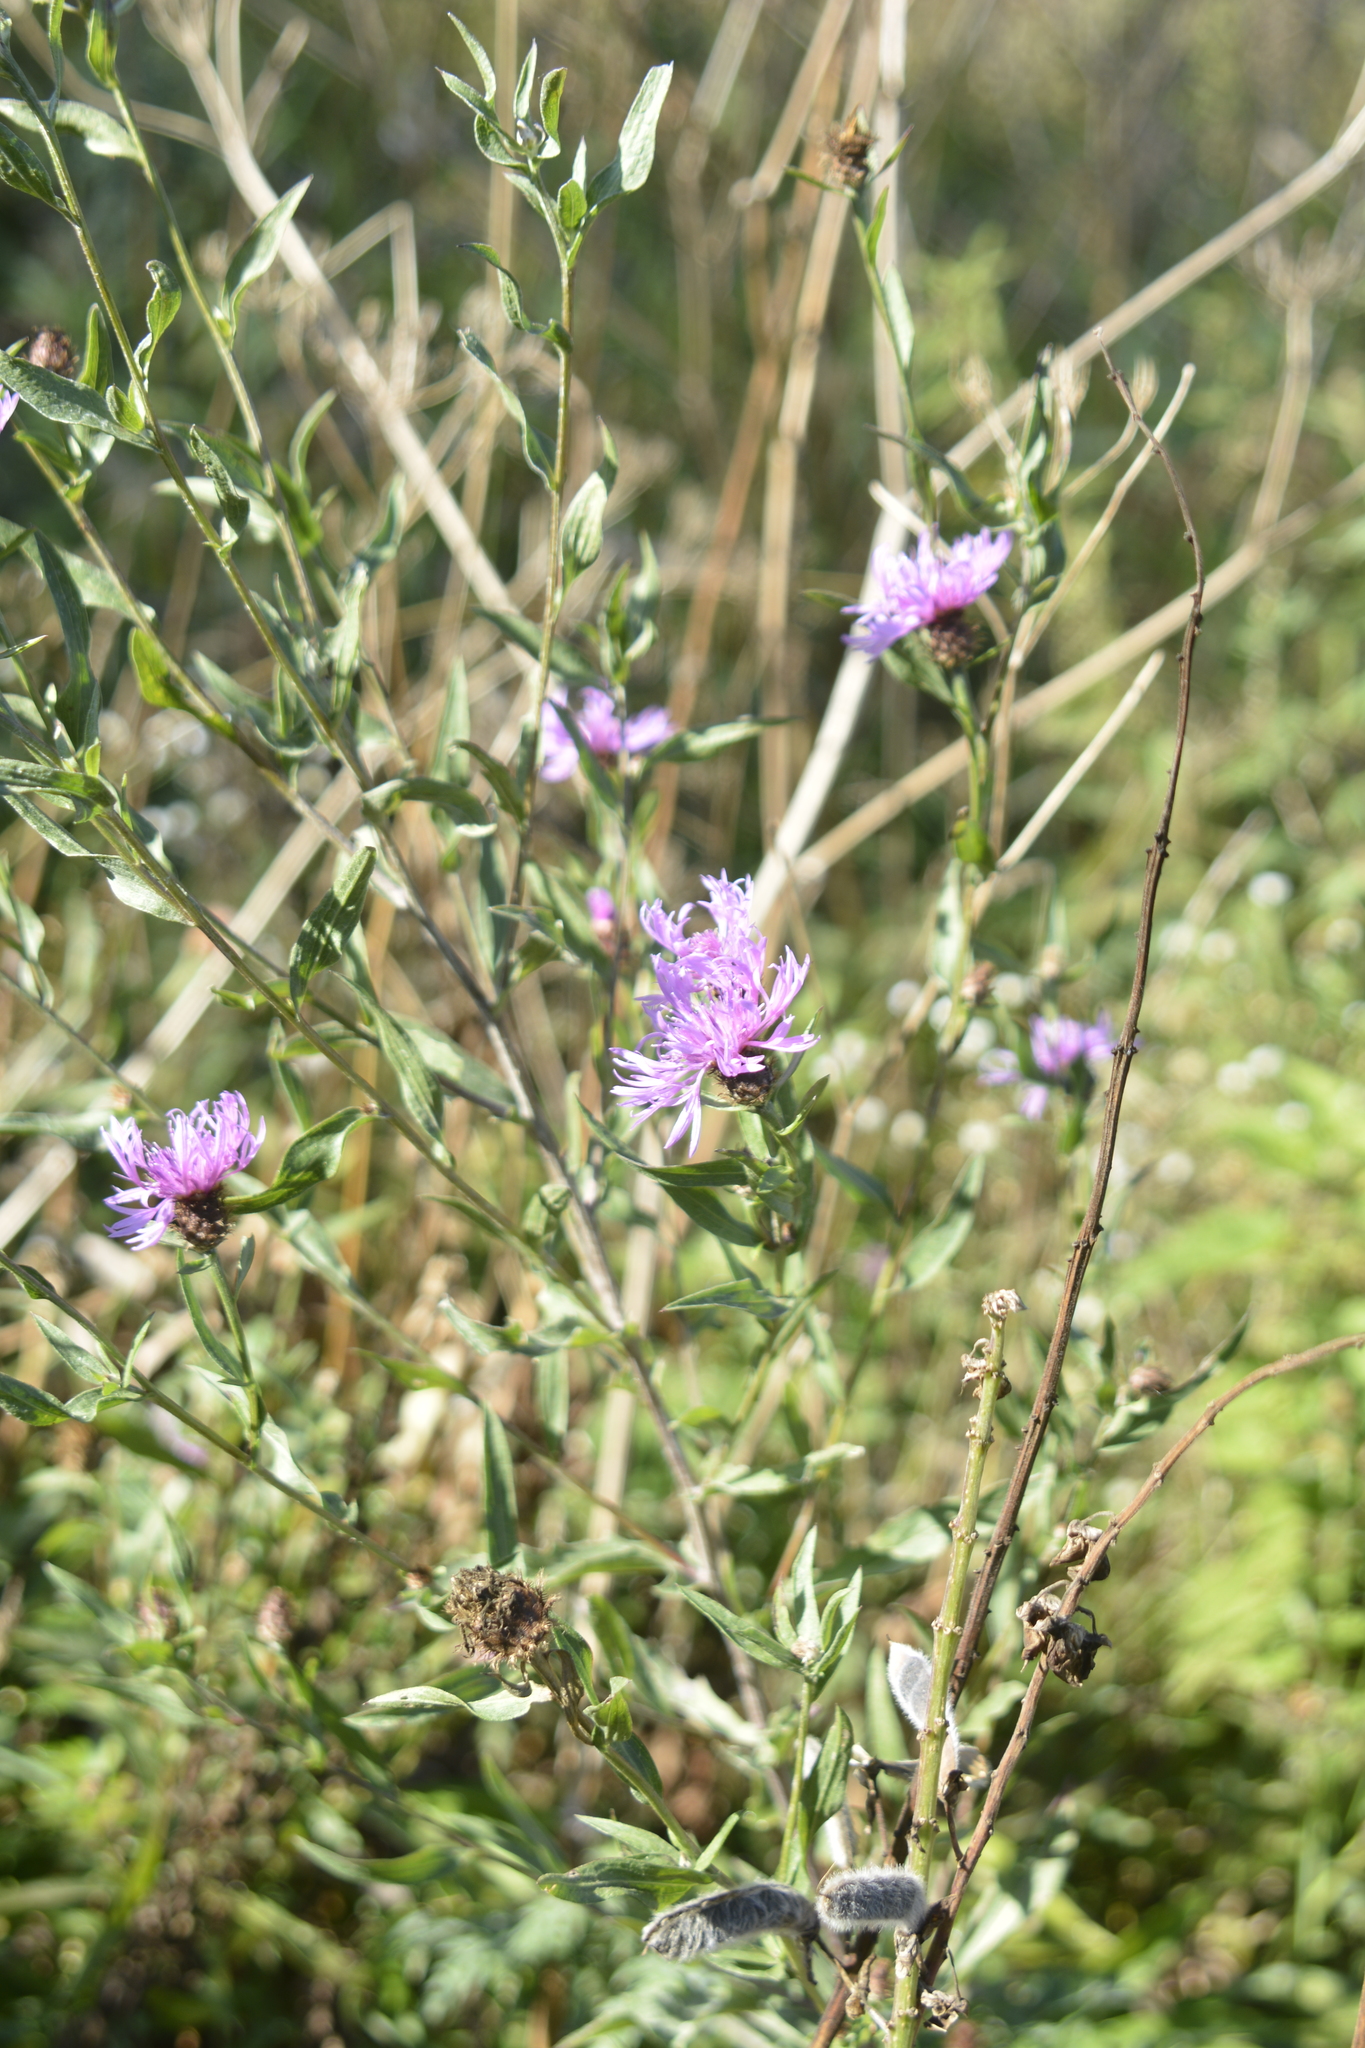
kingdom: Plantae
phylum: Tracheophyta
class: Magnoliopsida
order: Asterales
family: Asteraceae
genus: Centaurea
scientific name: Centaurea jacea
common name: Brown knapweed
